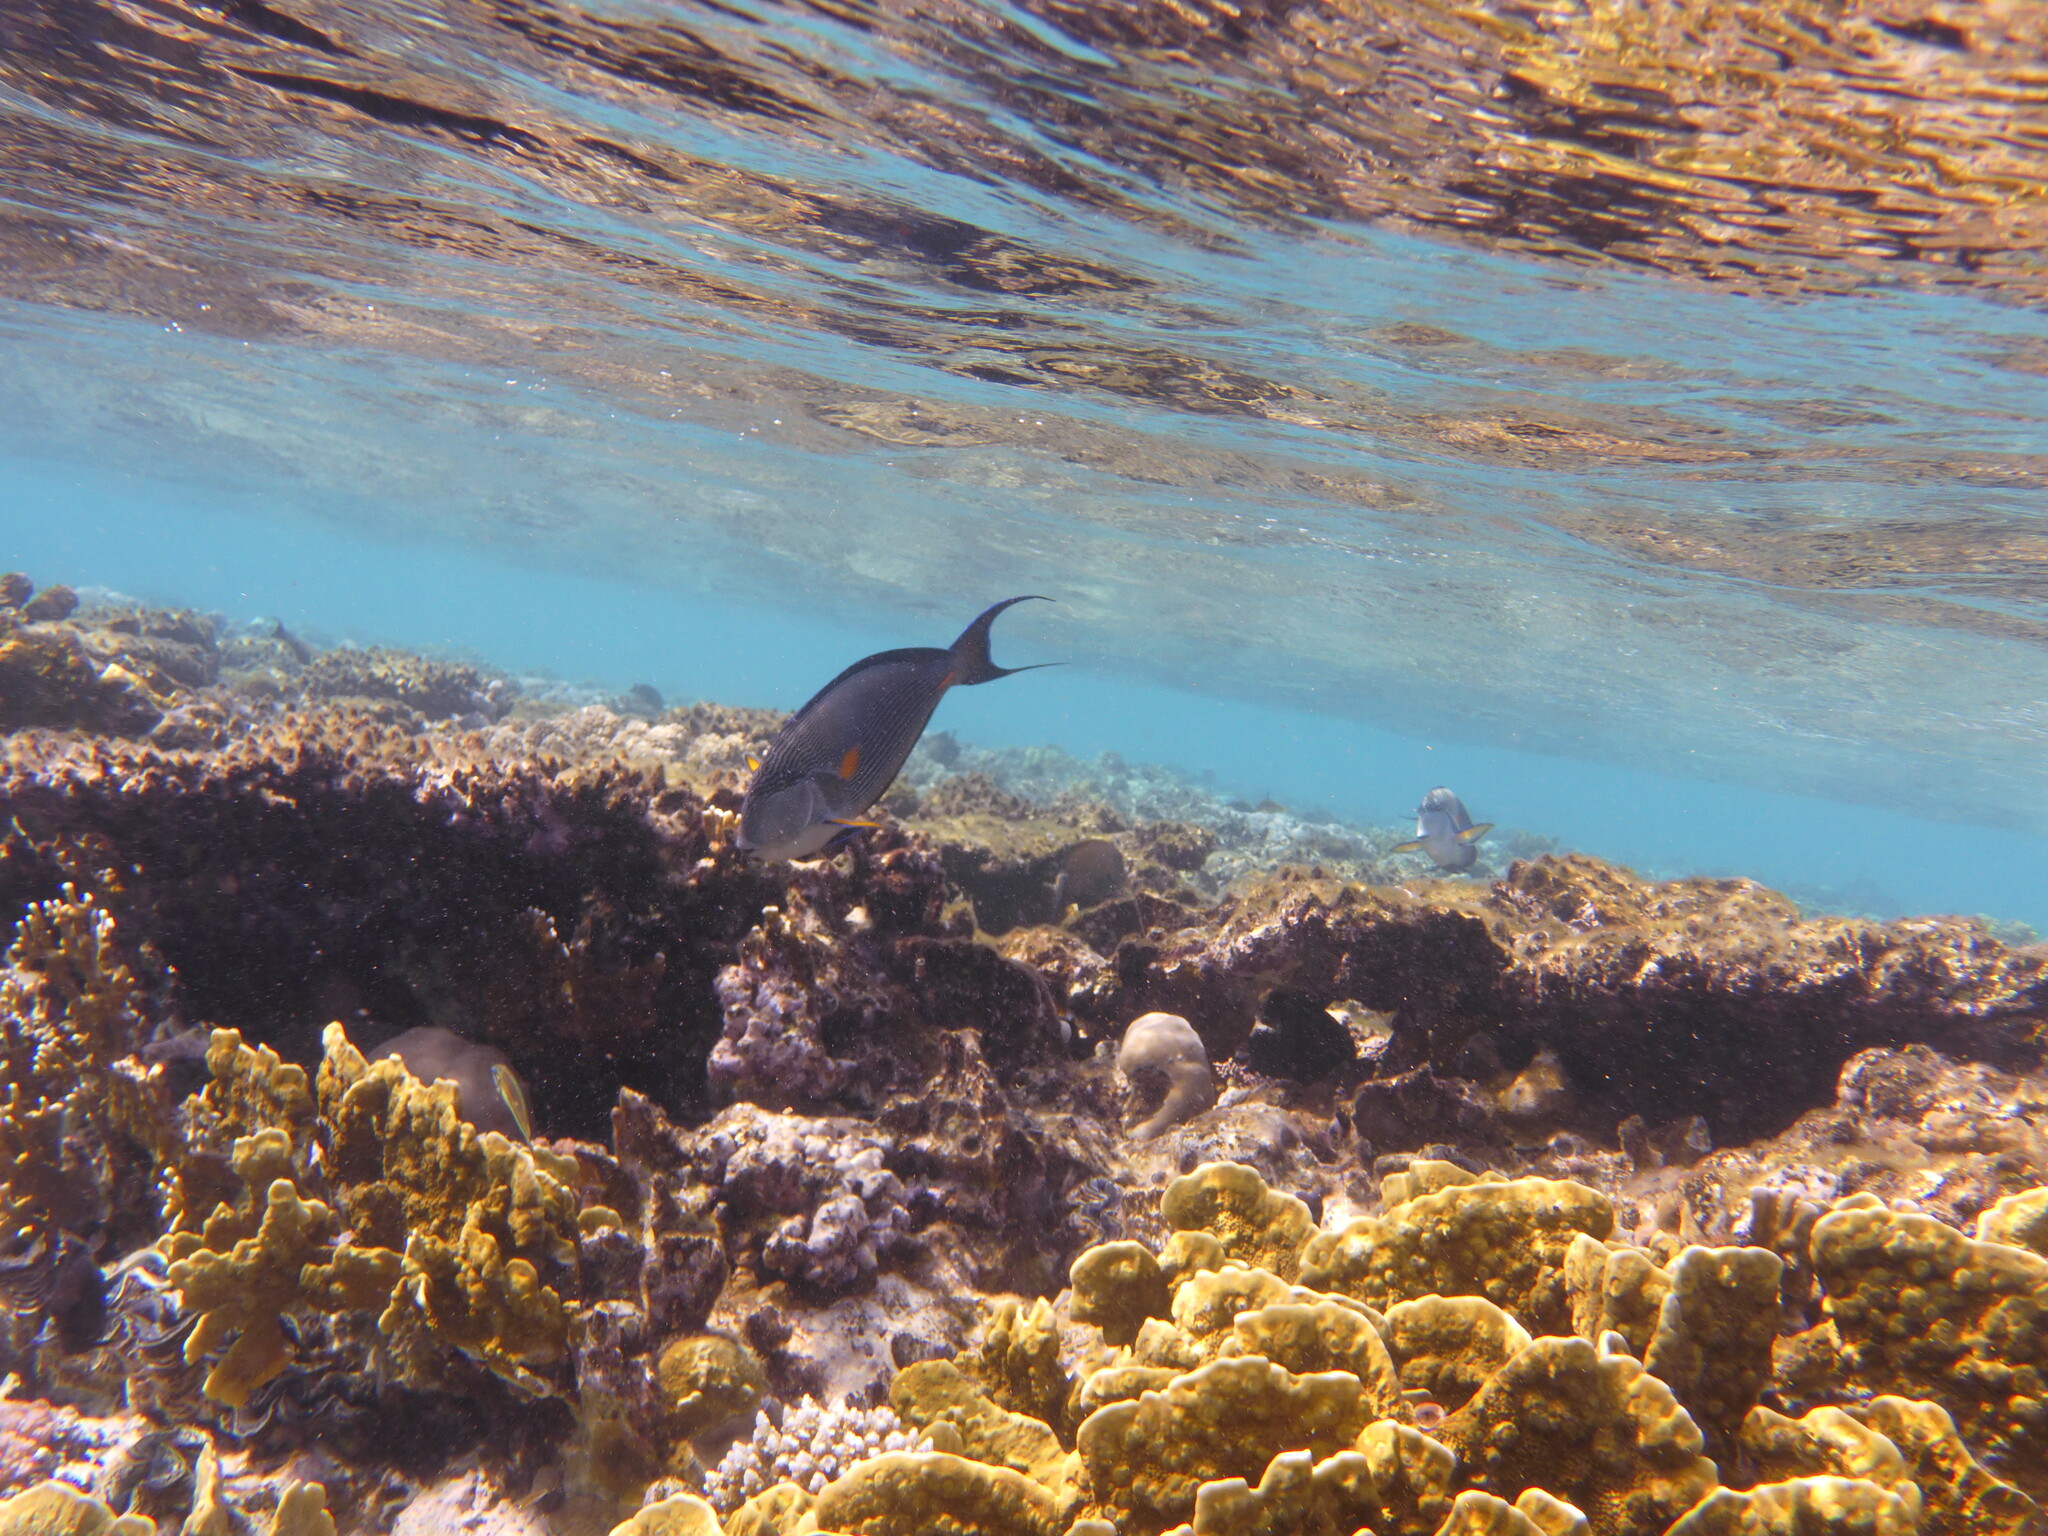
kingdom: Animalia
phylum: Chordata
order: Perciformes
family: Acanthuridae
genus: Acanthurus
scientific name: Acanthurus sohal
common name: Red sea surgeonfish
